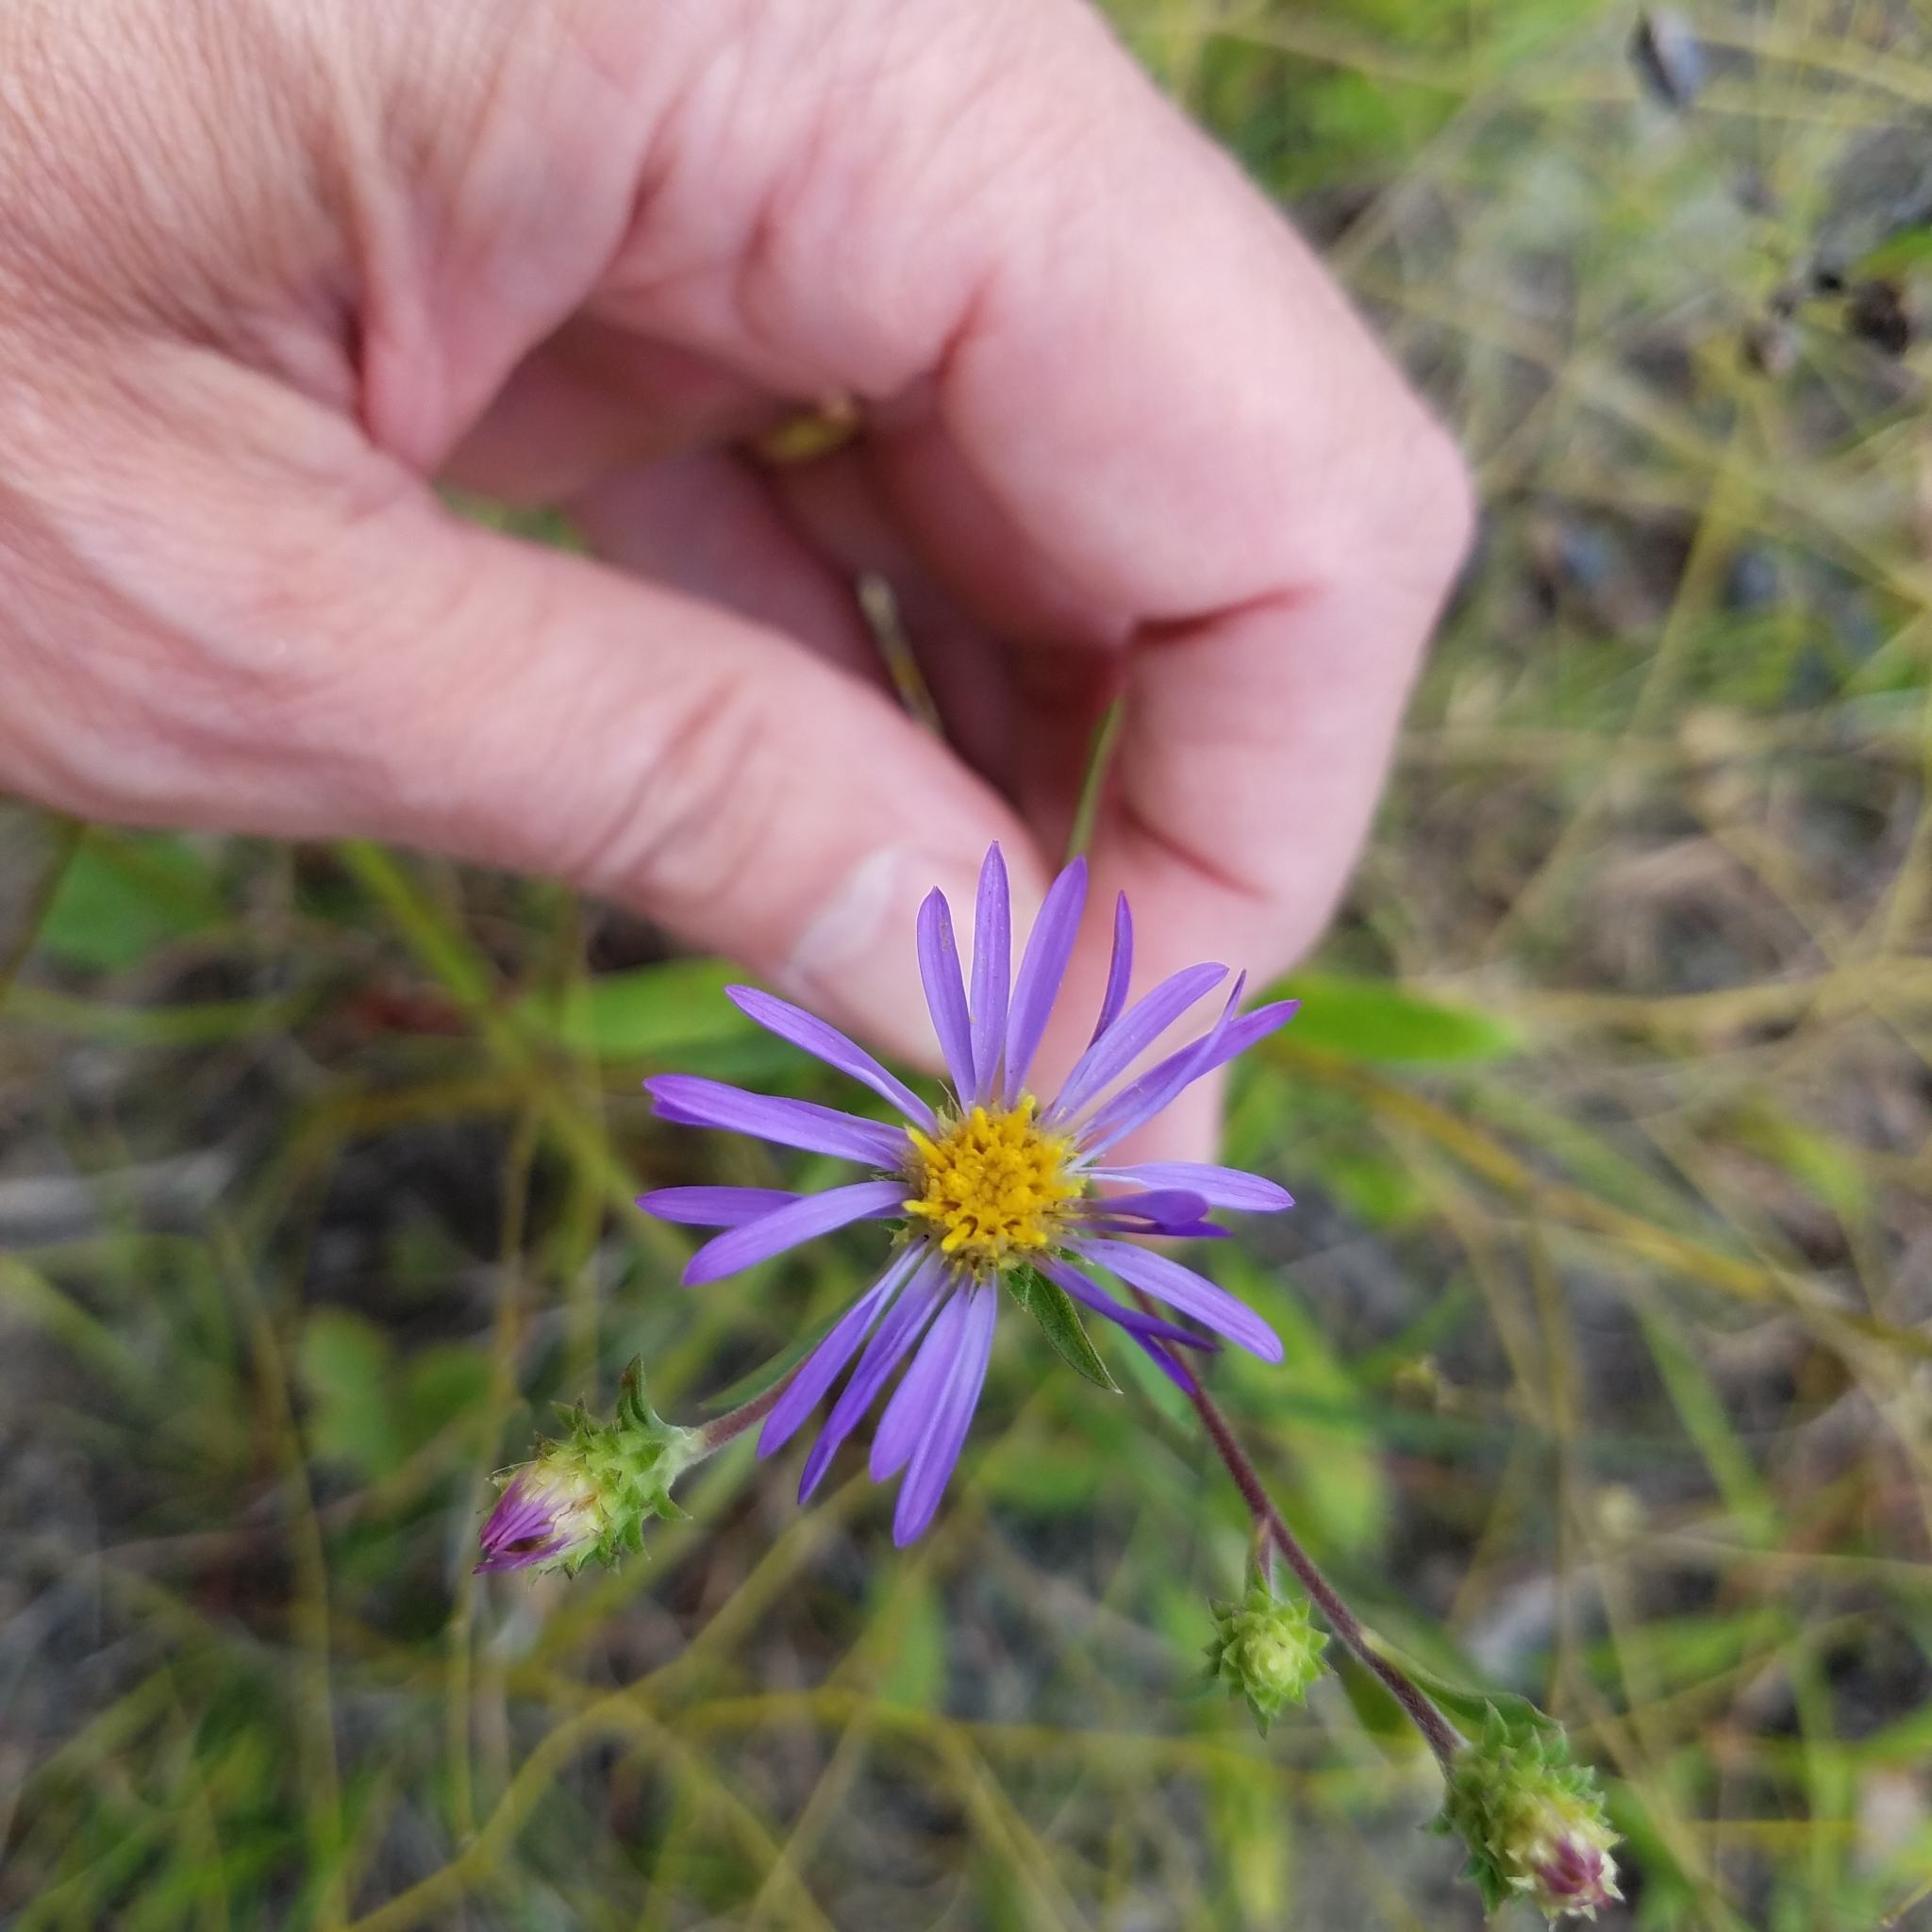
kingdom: Plantae
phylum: Tracheophyta
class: Magnoliopsida
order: Asterales
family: Asteraceae
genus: Eurybia
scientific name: Eurybia spectabilis
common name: Low showy aster
